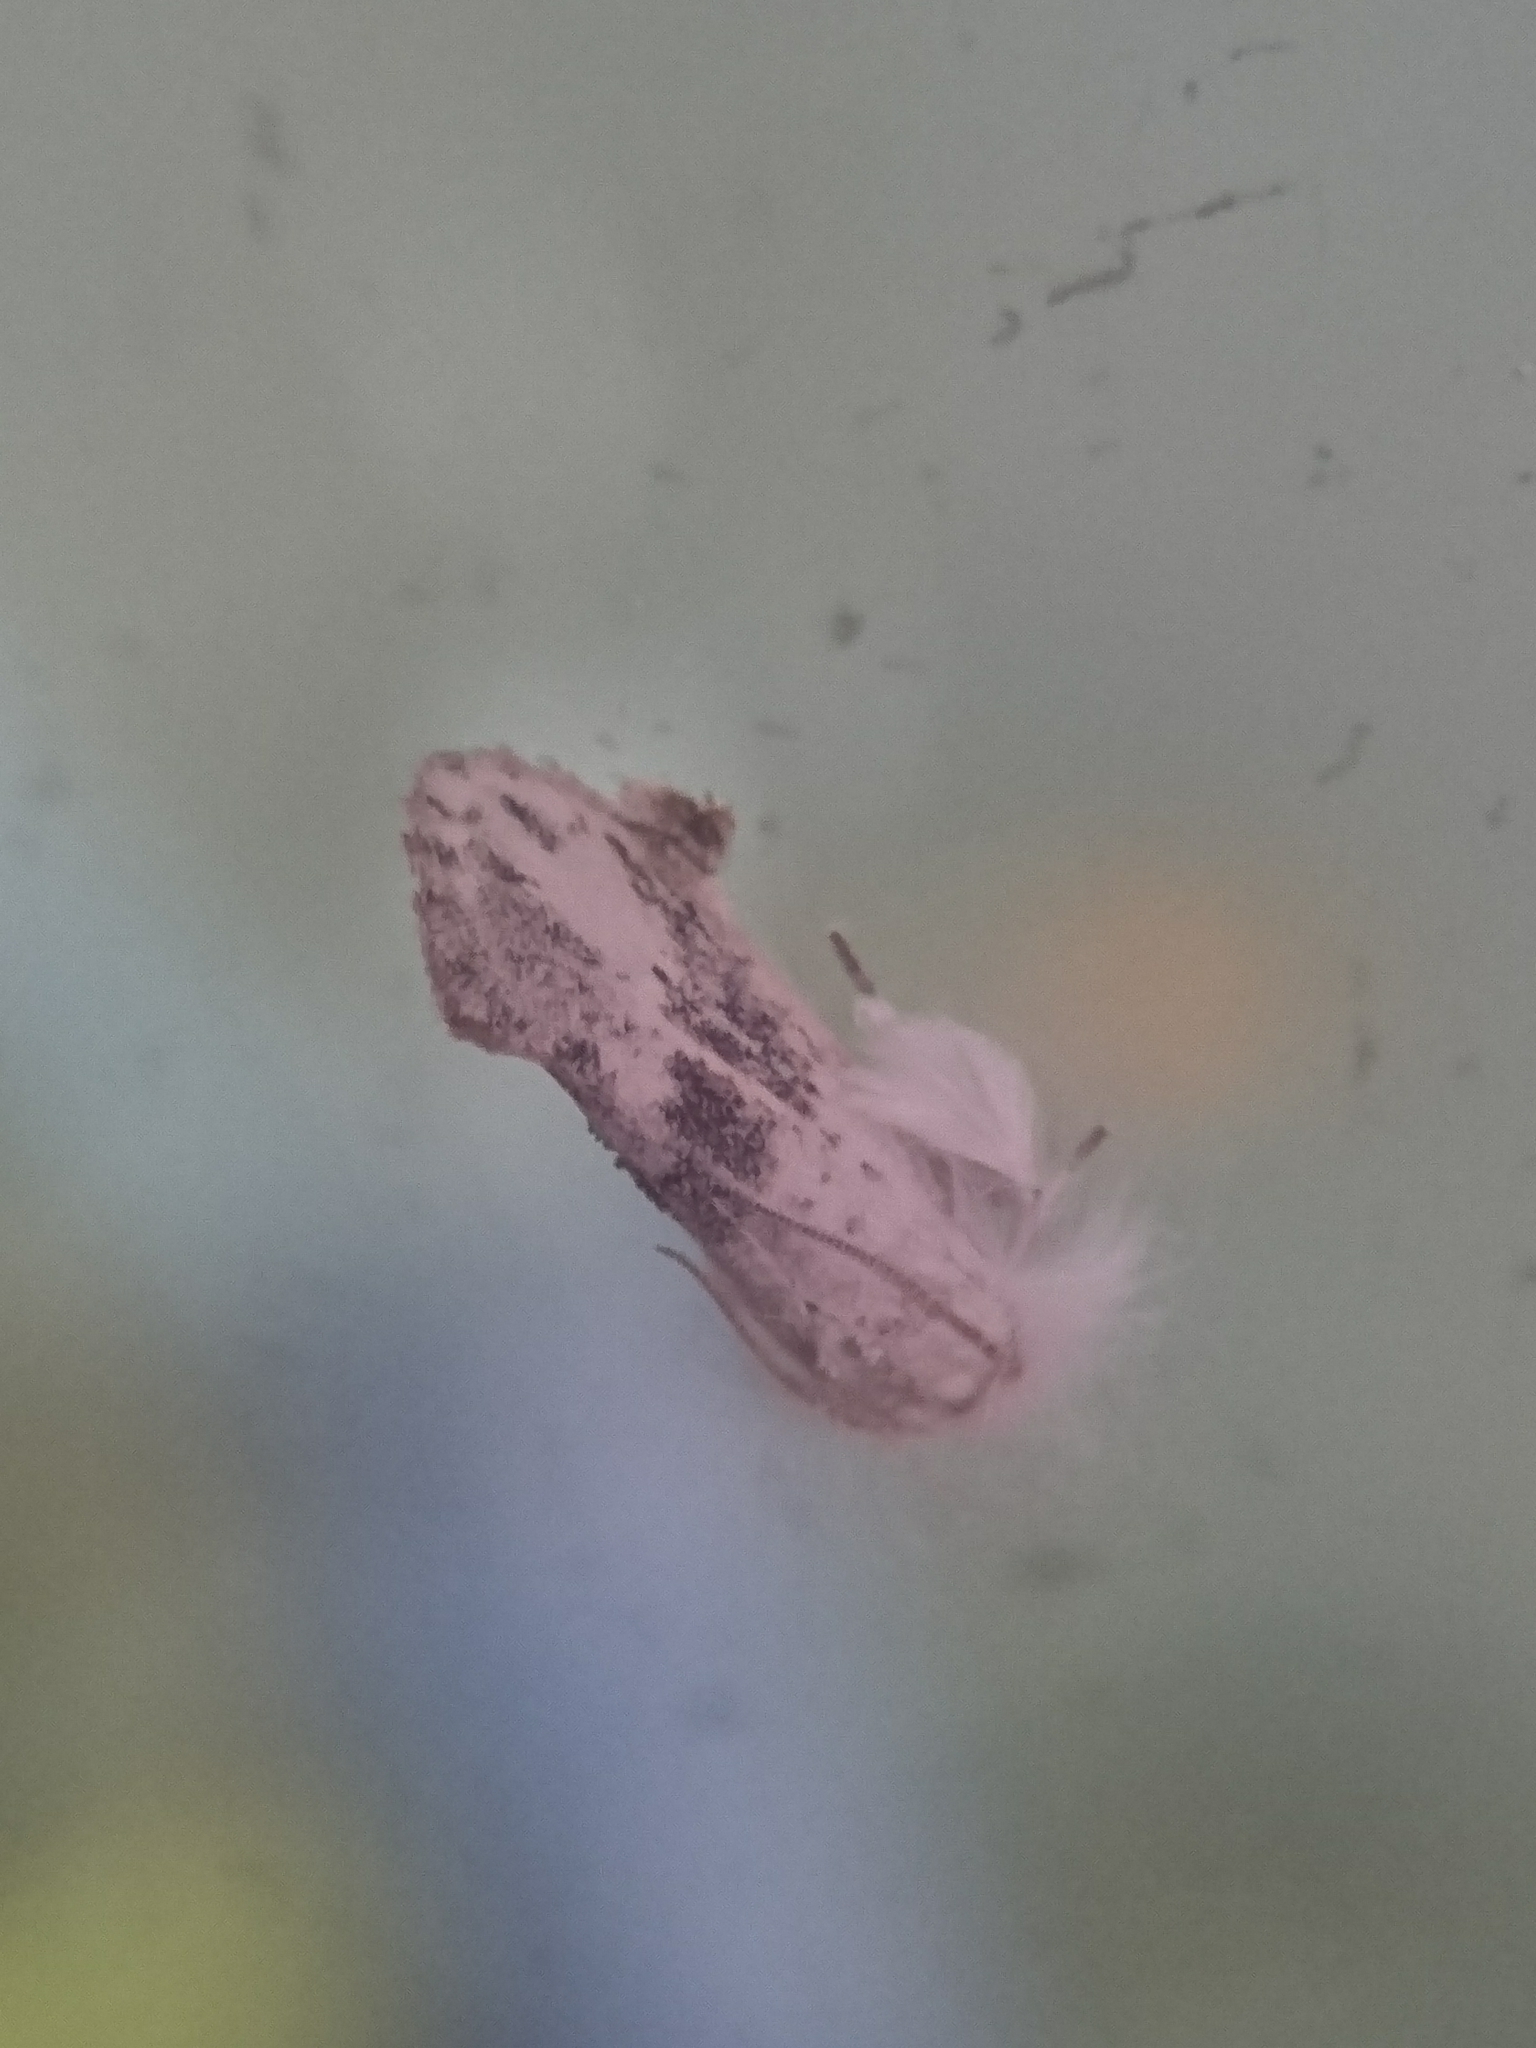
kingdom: Animalia
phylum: Arthropoda
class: Insecta
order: Lepidoptera
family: Tineidae
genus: Acrolophus
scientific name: Acrolophus mycetophagus
